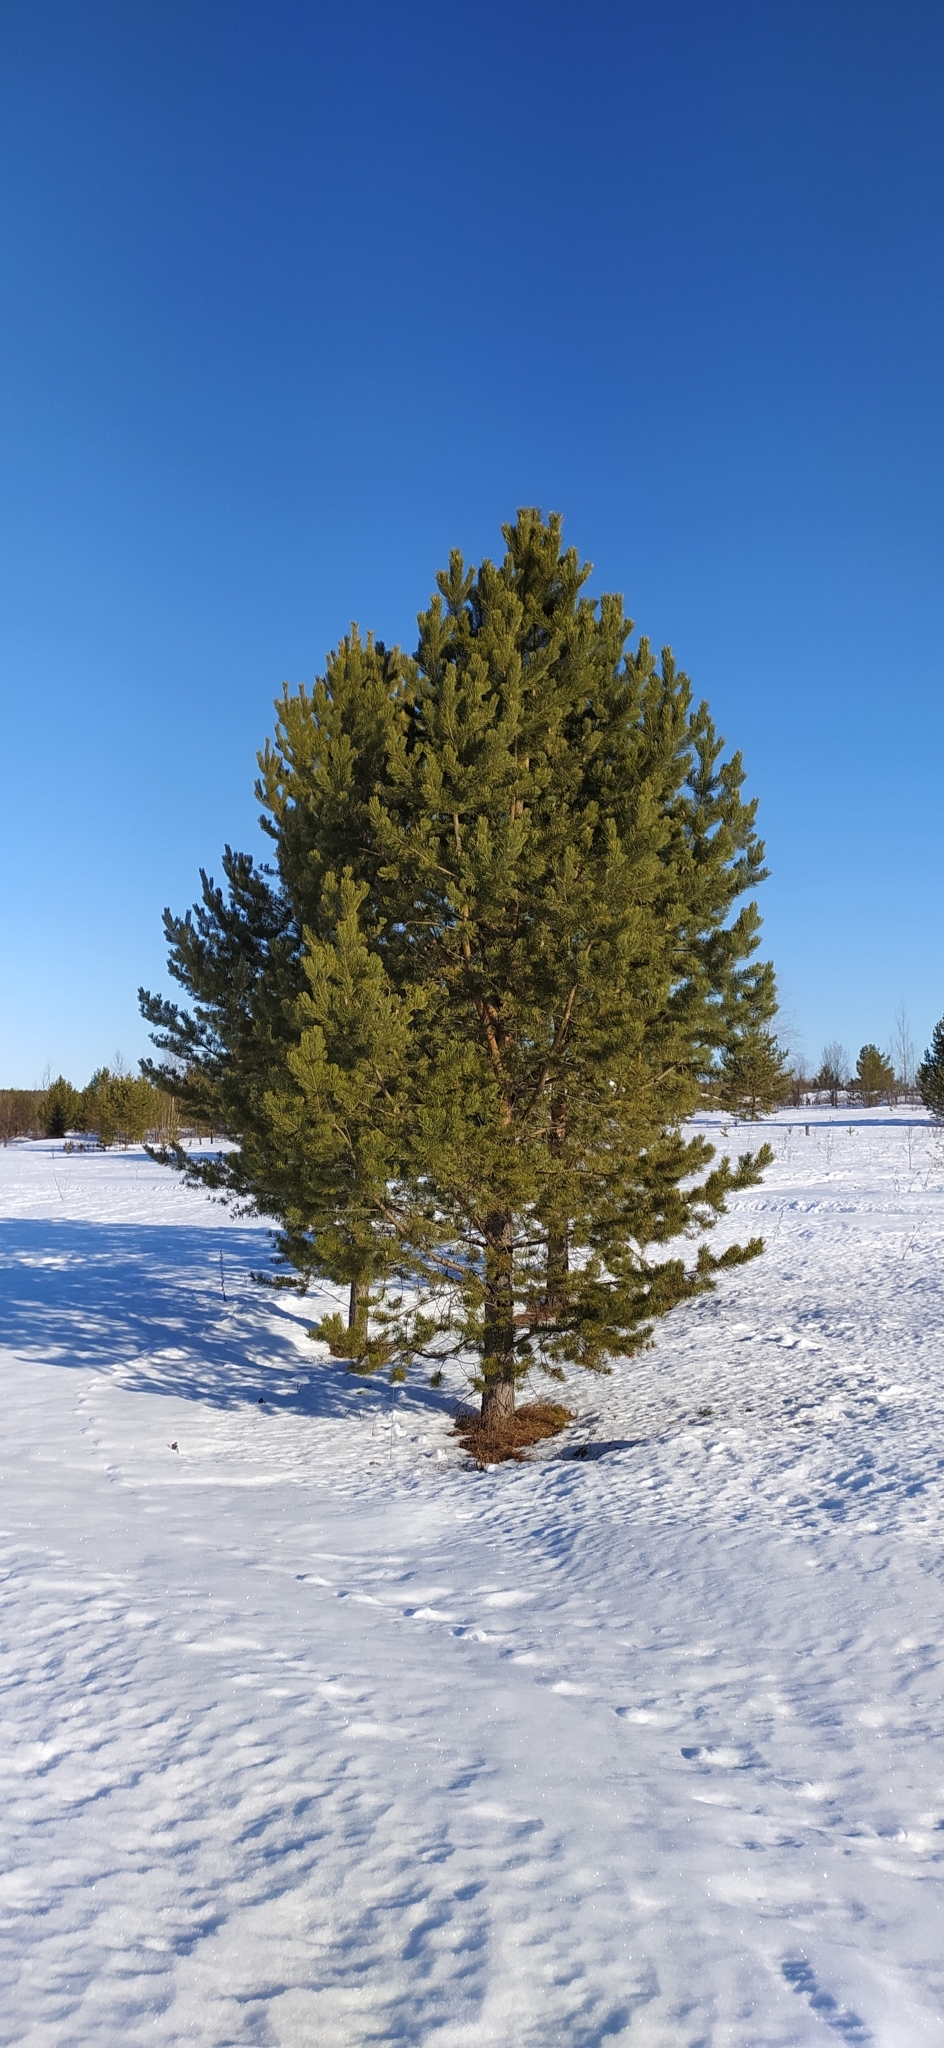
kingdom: Plantae
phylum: Tracheophyta
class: Pinopsida
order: Pinales
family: Pinaceae
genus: Pinus
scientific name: Pinus sylvestris
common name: Scots pine
